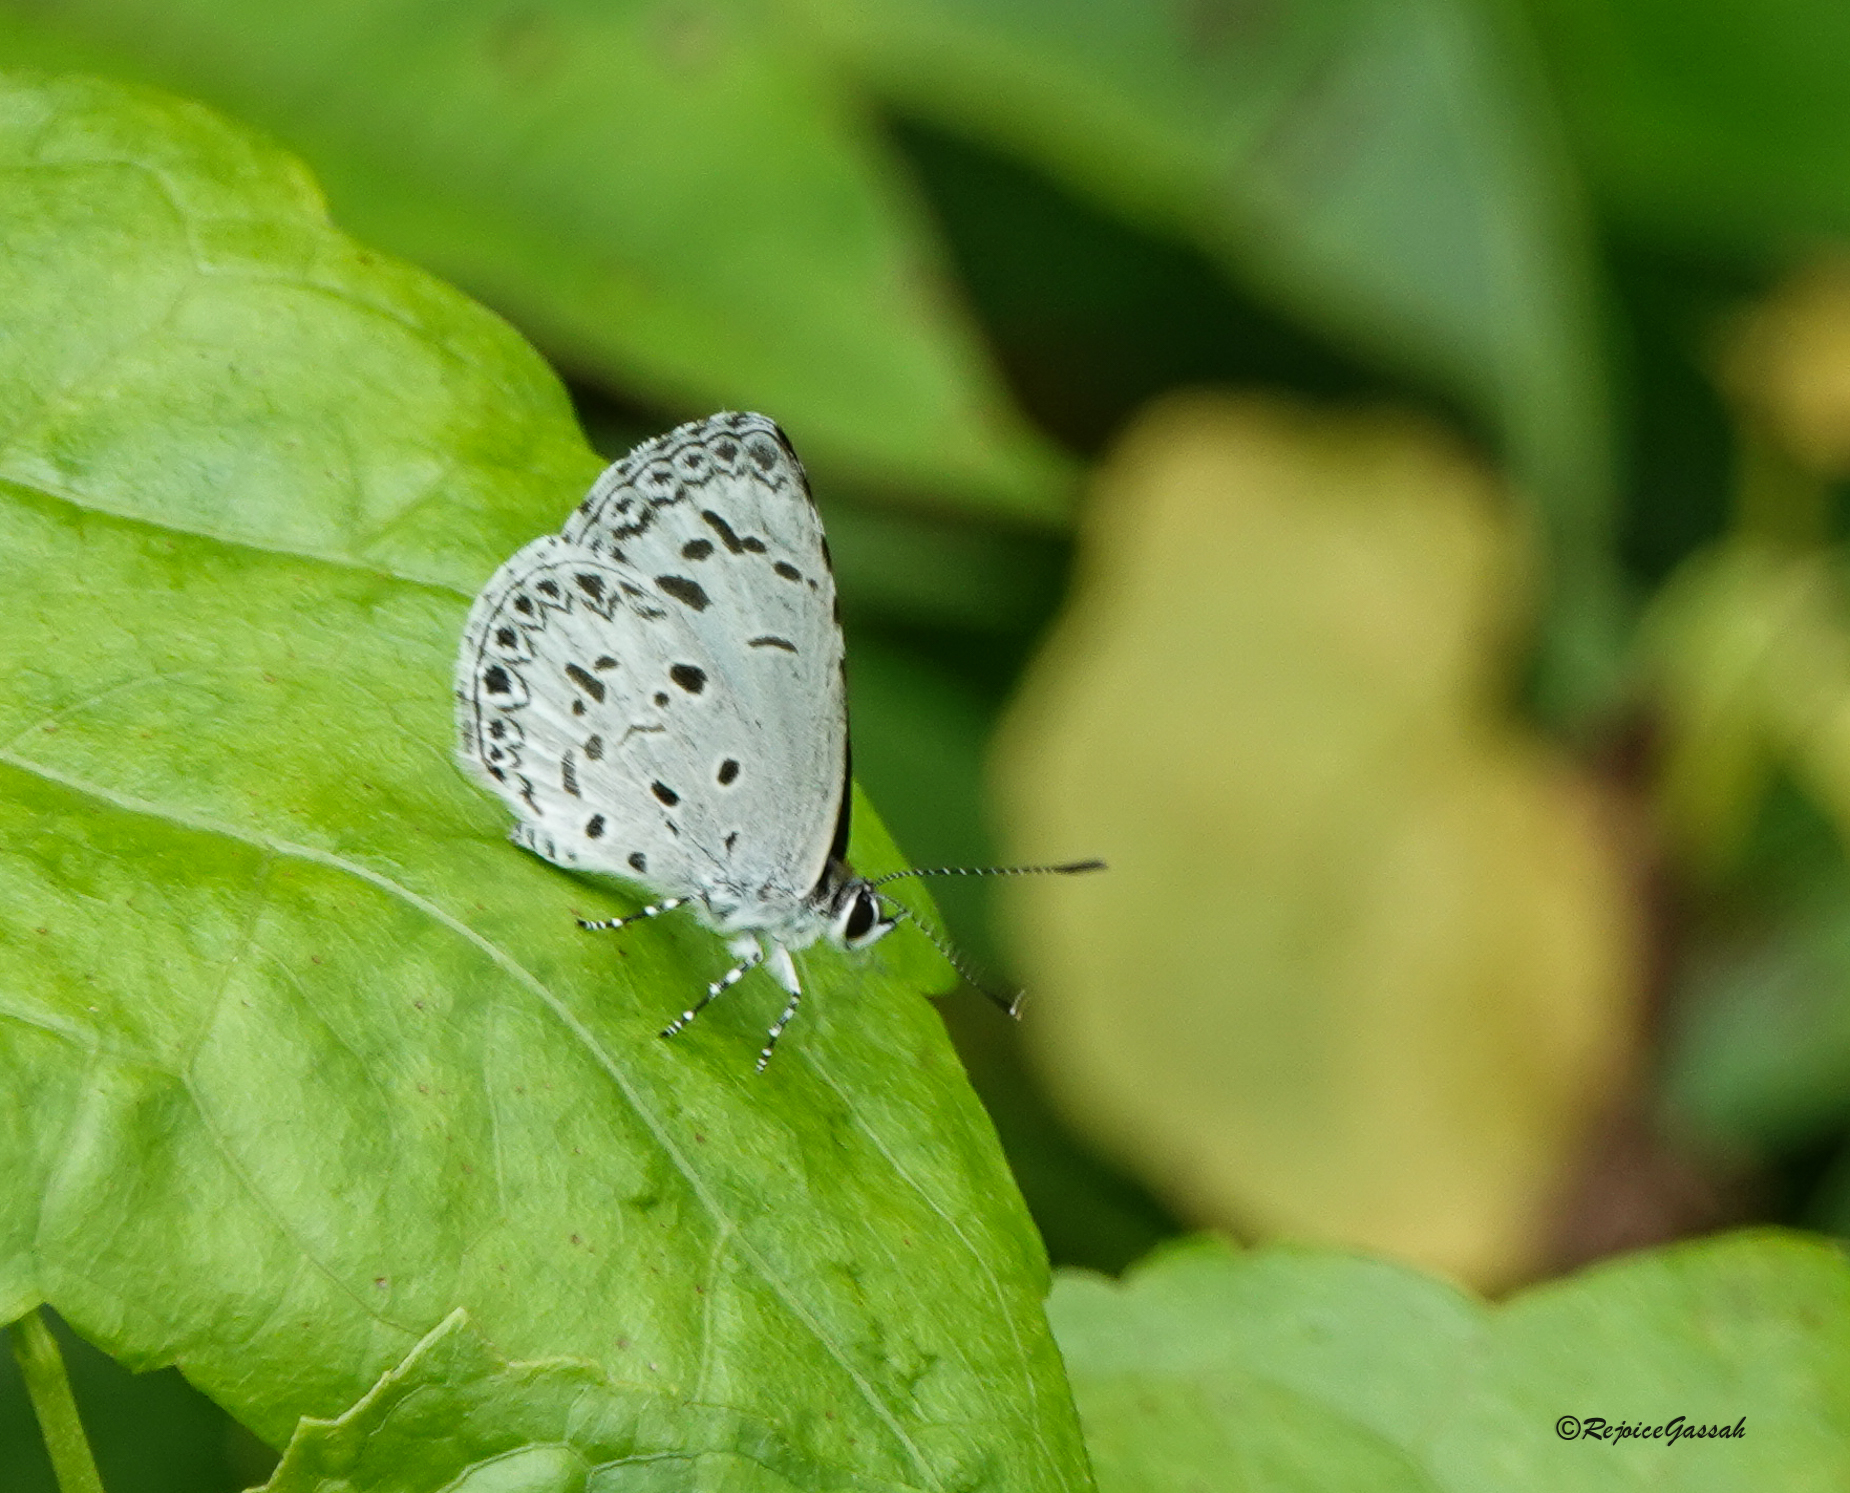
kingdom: Animalia
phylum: Arthropoda
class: Insecta
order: Lepidoptera
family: Lycaenidae
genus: Acytolepis
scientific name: Acytolepis puspa
